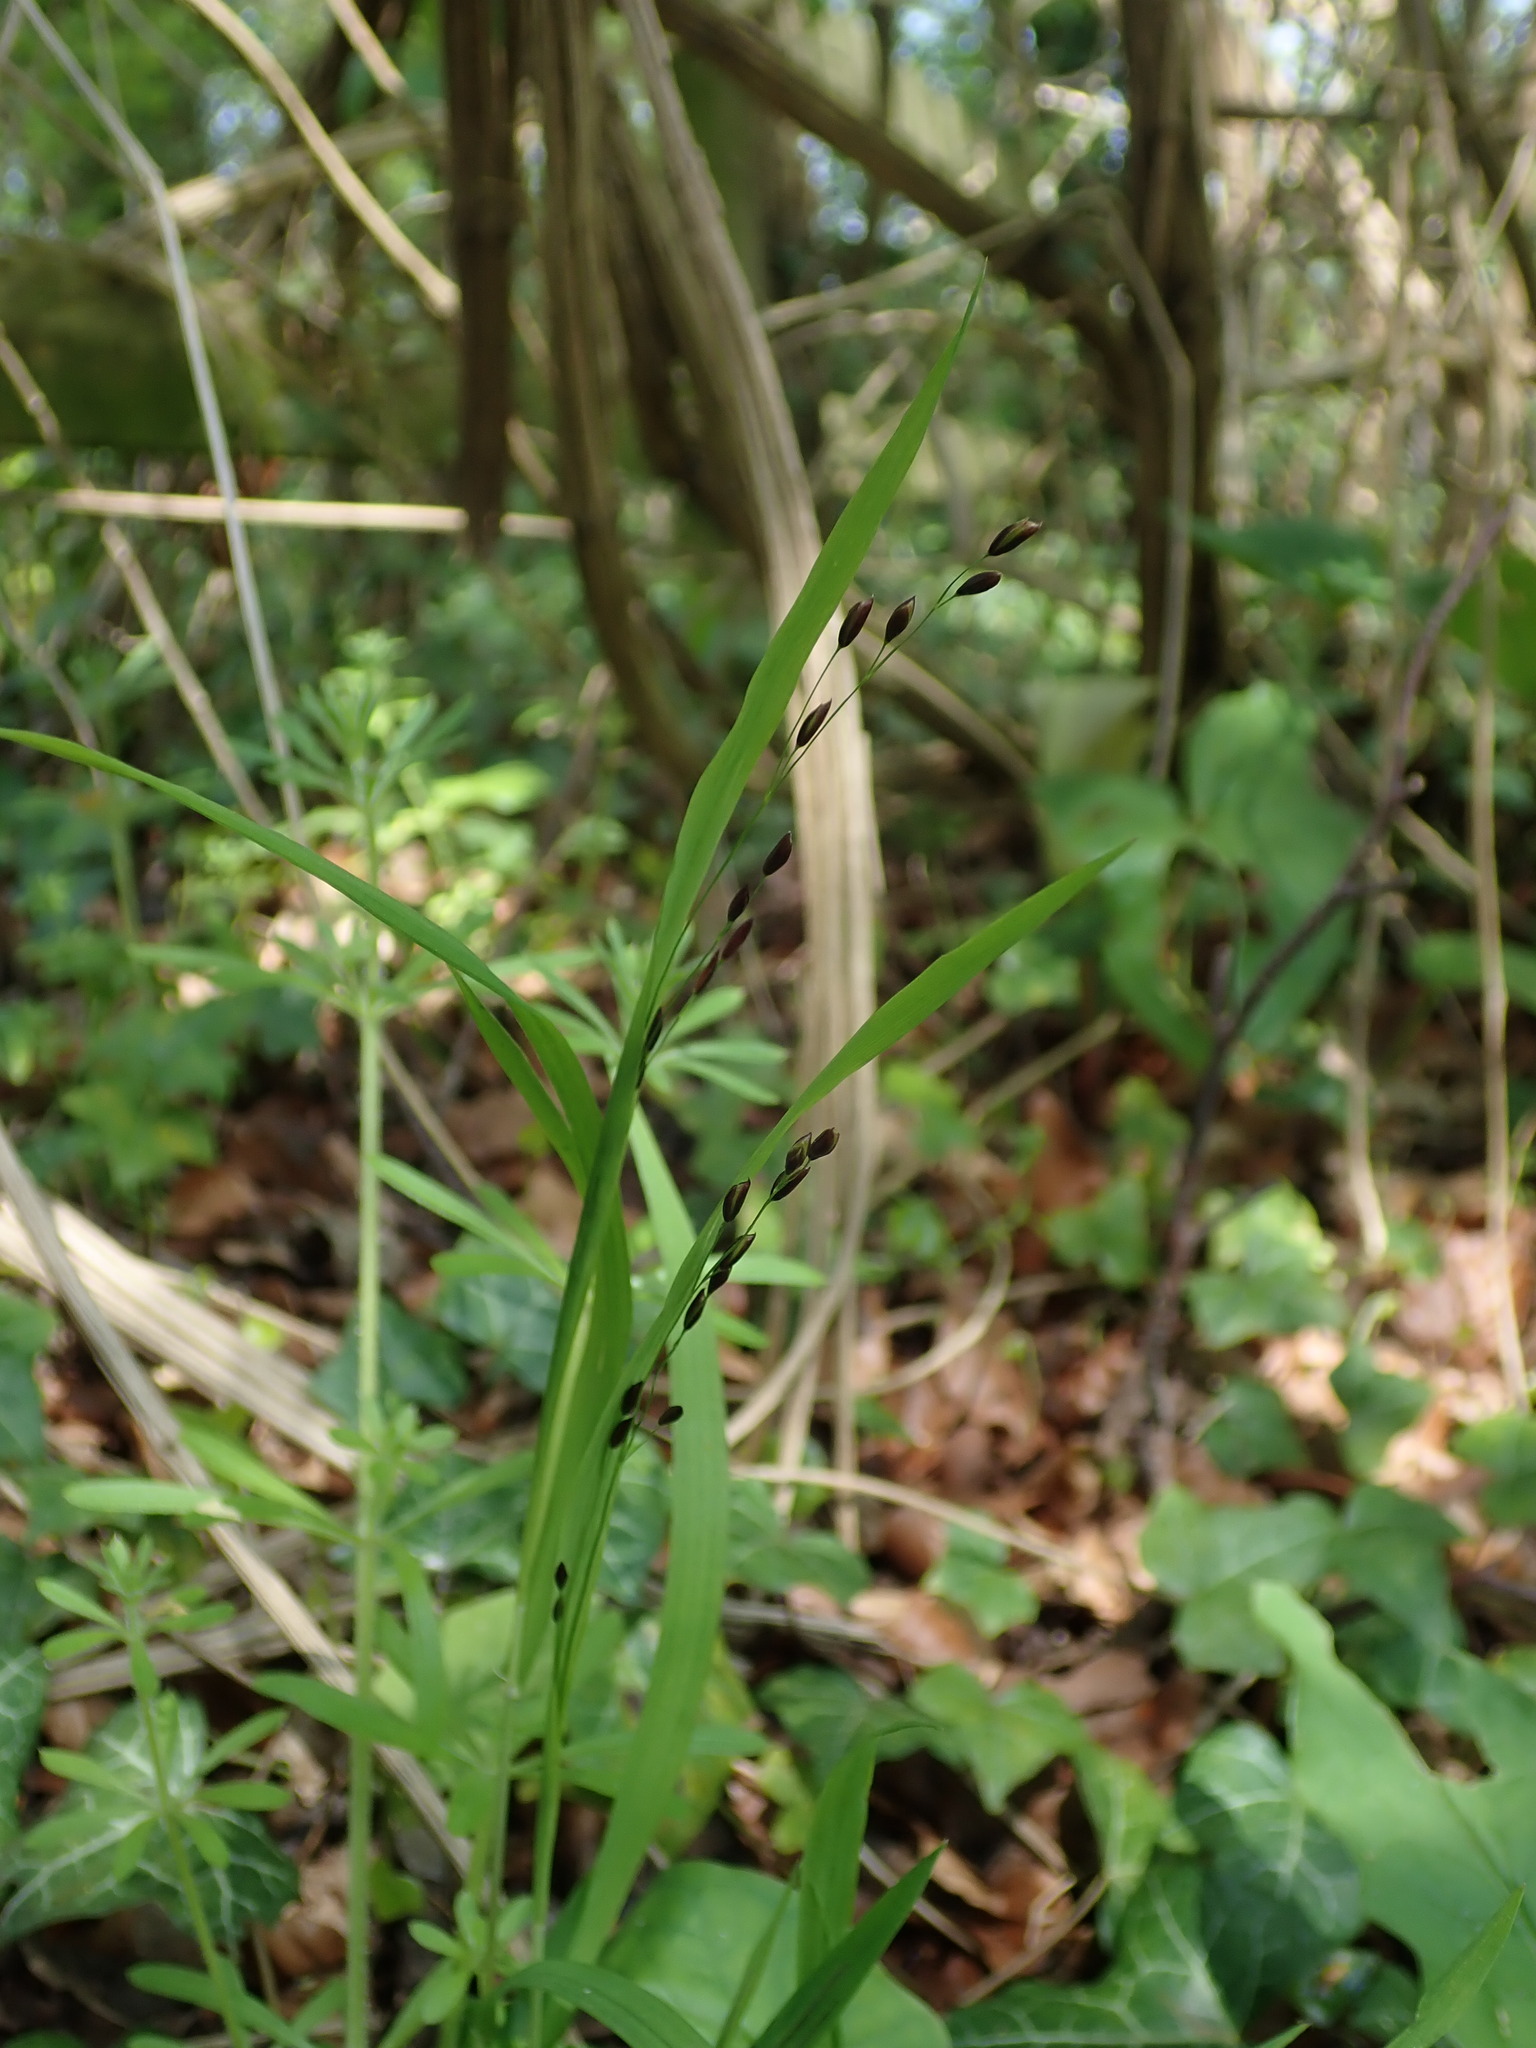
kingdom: Plantae
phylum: Tracheophyta
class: Liliopsida
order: Poales
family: Poaceae
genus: Melica
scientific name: Melica uniflora
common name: Wood melick
